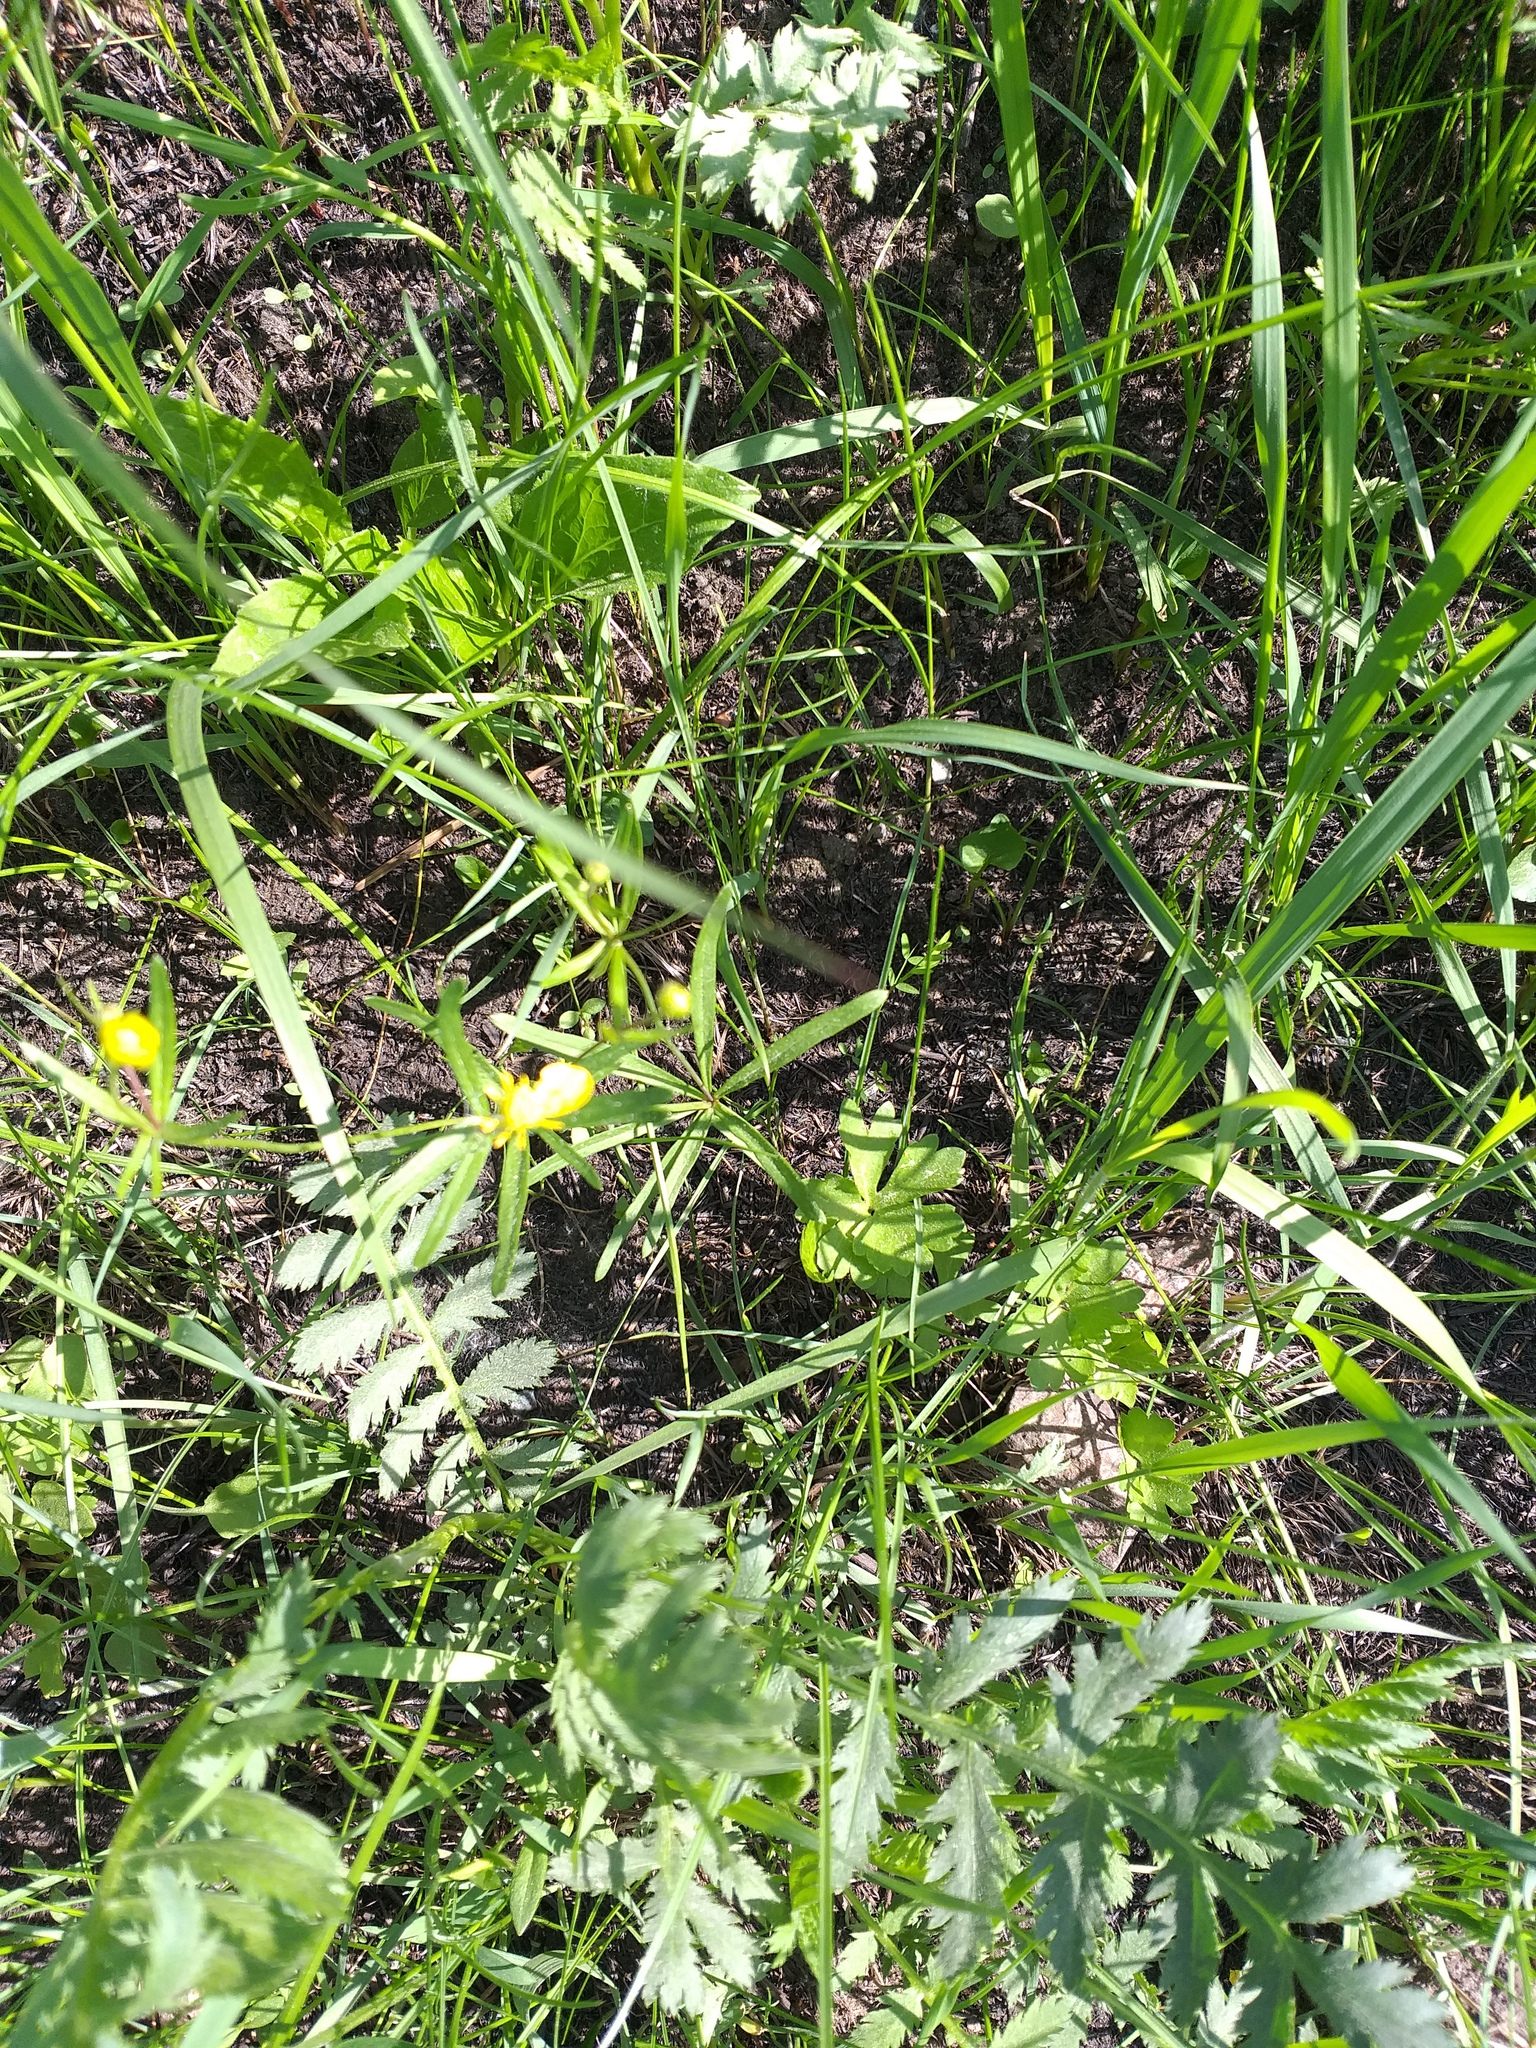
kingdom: Plantae
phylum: Tracheophyta
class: Magnoliopsida
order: Ranunculales
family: Ranunculaceae
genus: Ranunculus
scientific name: Ranunculus auricomus
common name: Goldilocks buttercup
